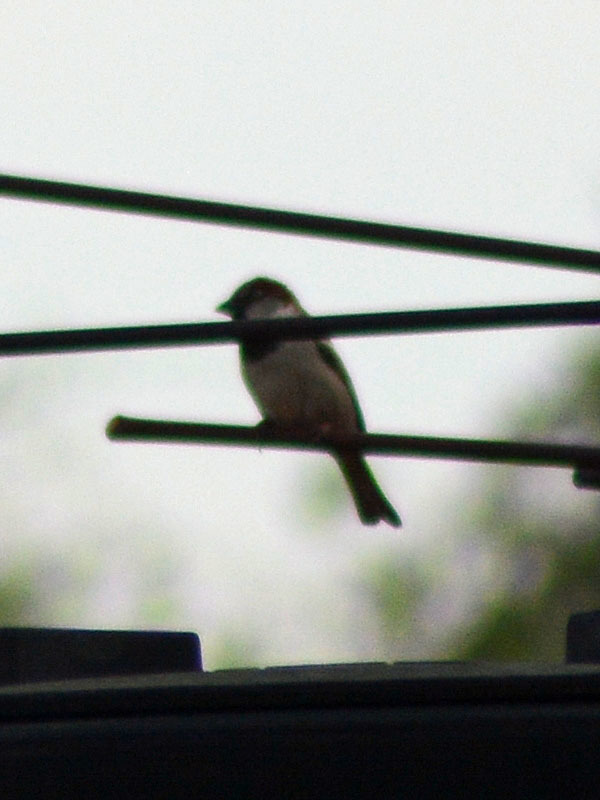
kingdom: Animalia
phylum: Chordata
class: Aves
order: Passeriformes
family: Passeridae
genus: Passer
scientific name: Passer domesticus
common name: House sparrow
